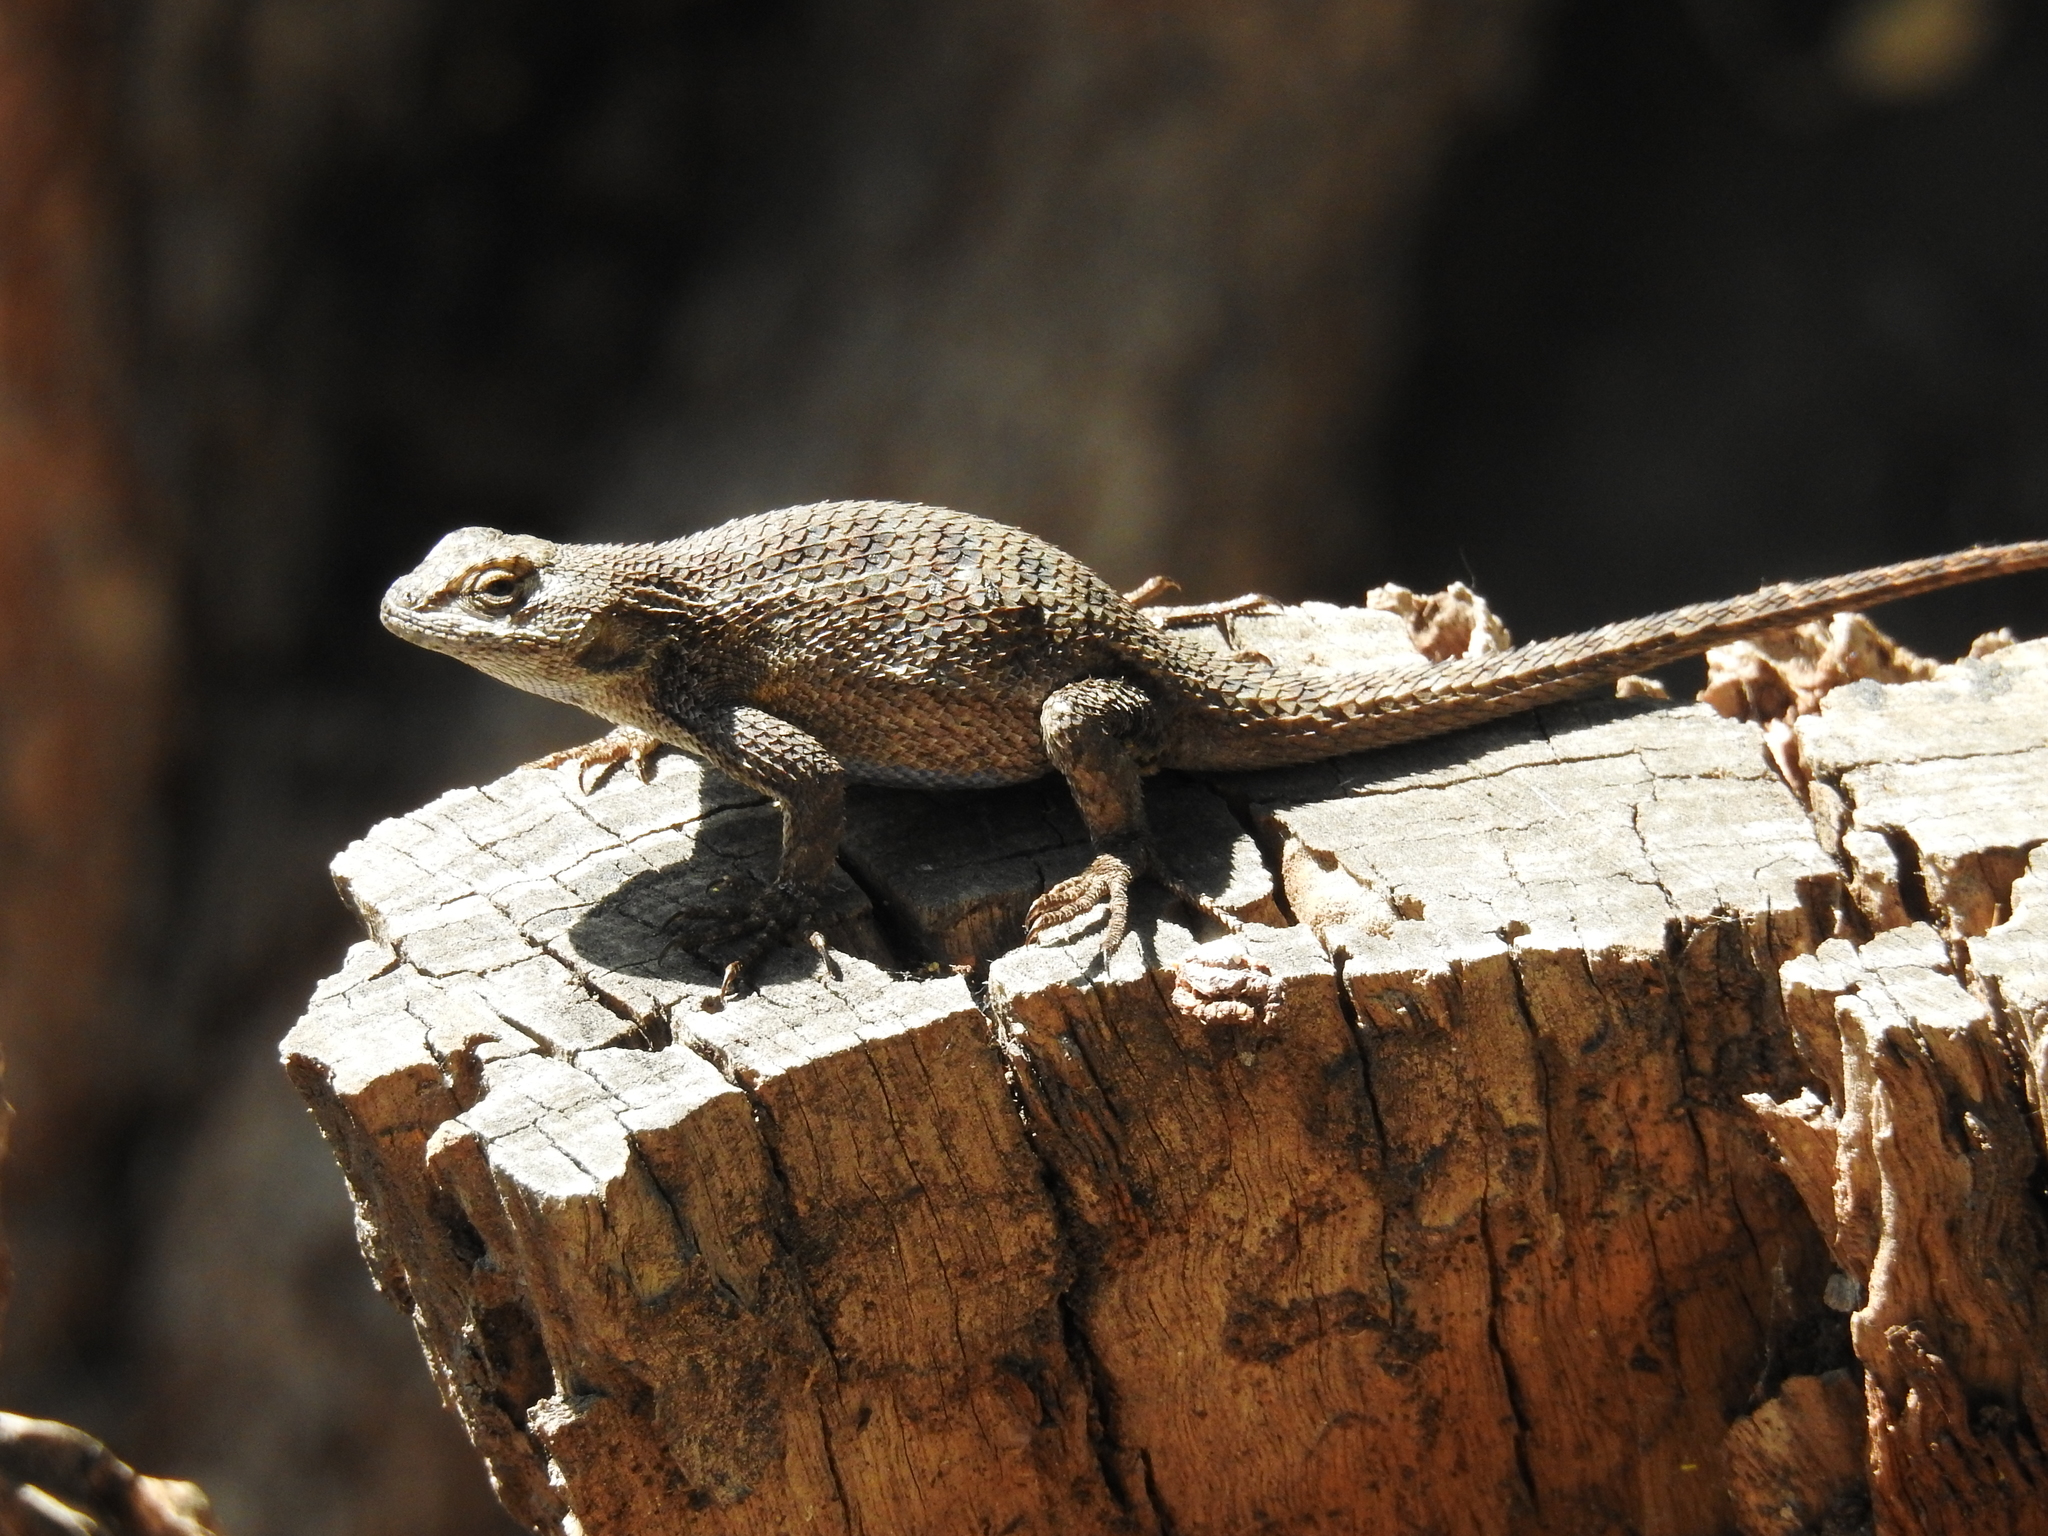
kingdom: Animalia
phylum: Chordata
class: Squamata
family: Phrynosomatidae
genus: Sceloporus
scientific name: Sceloporus occidentalis
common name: Western fence lizard
